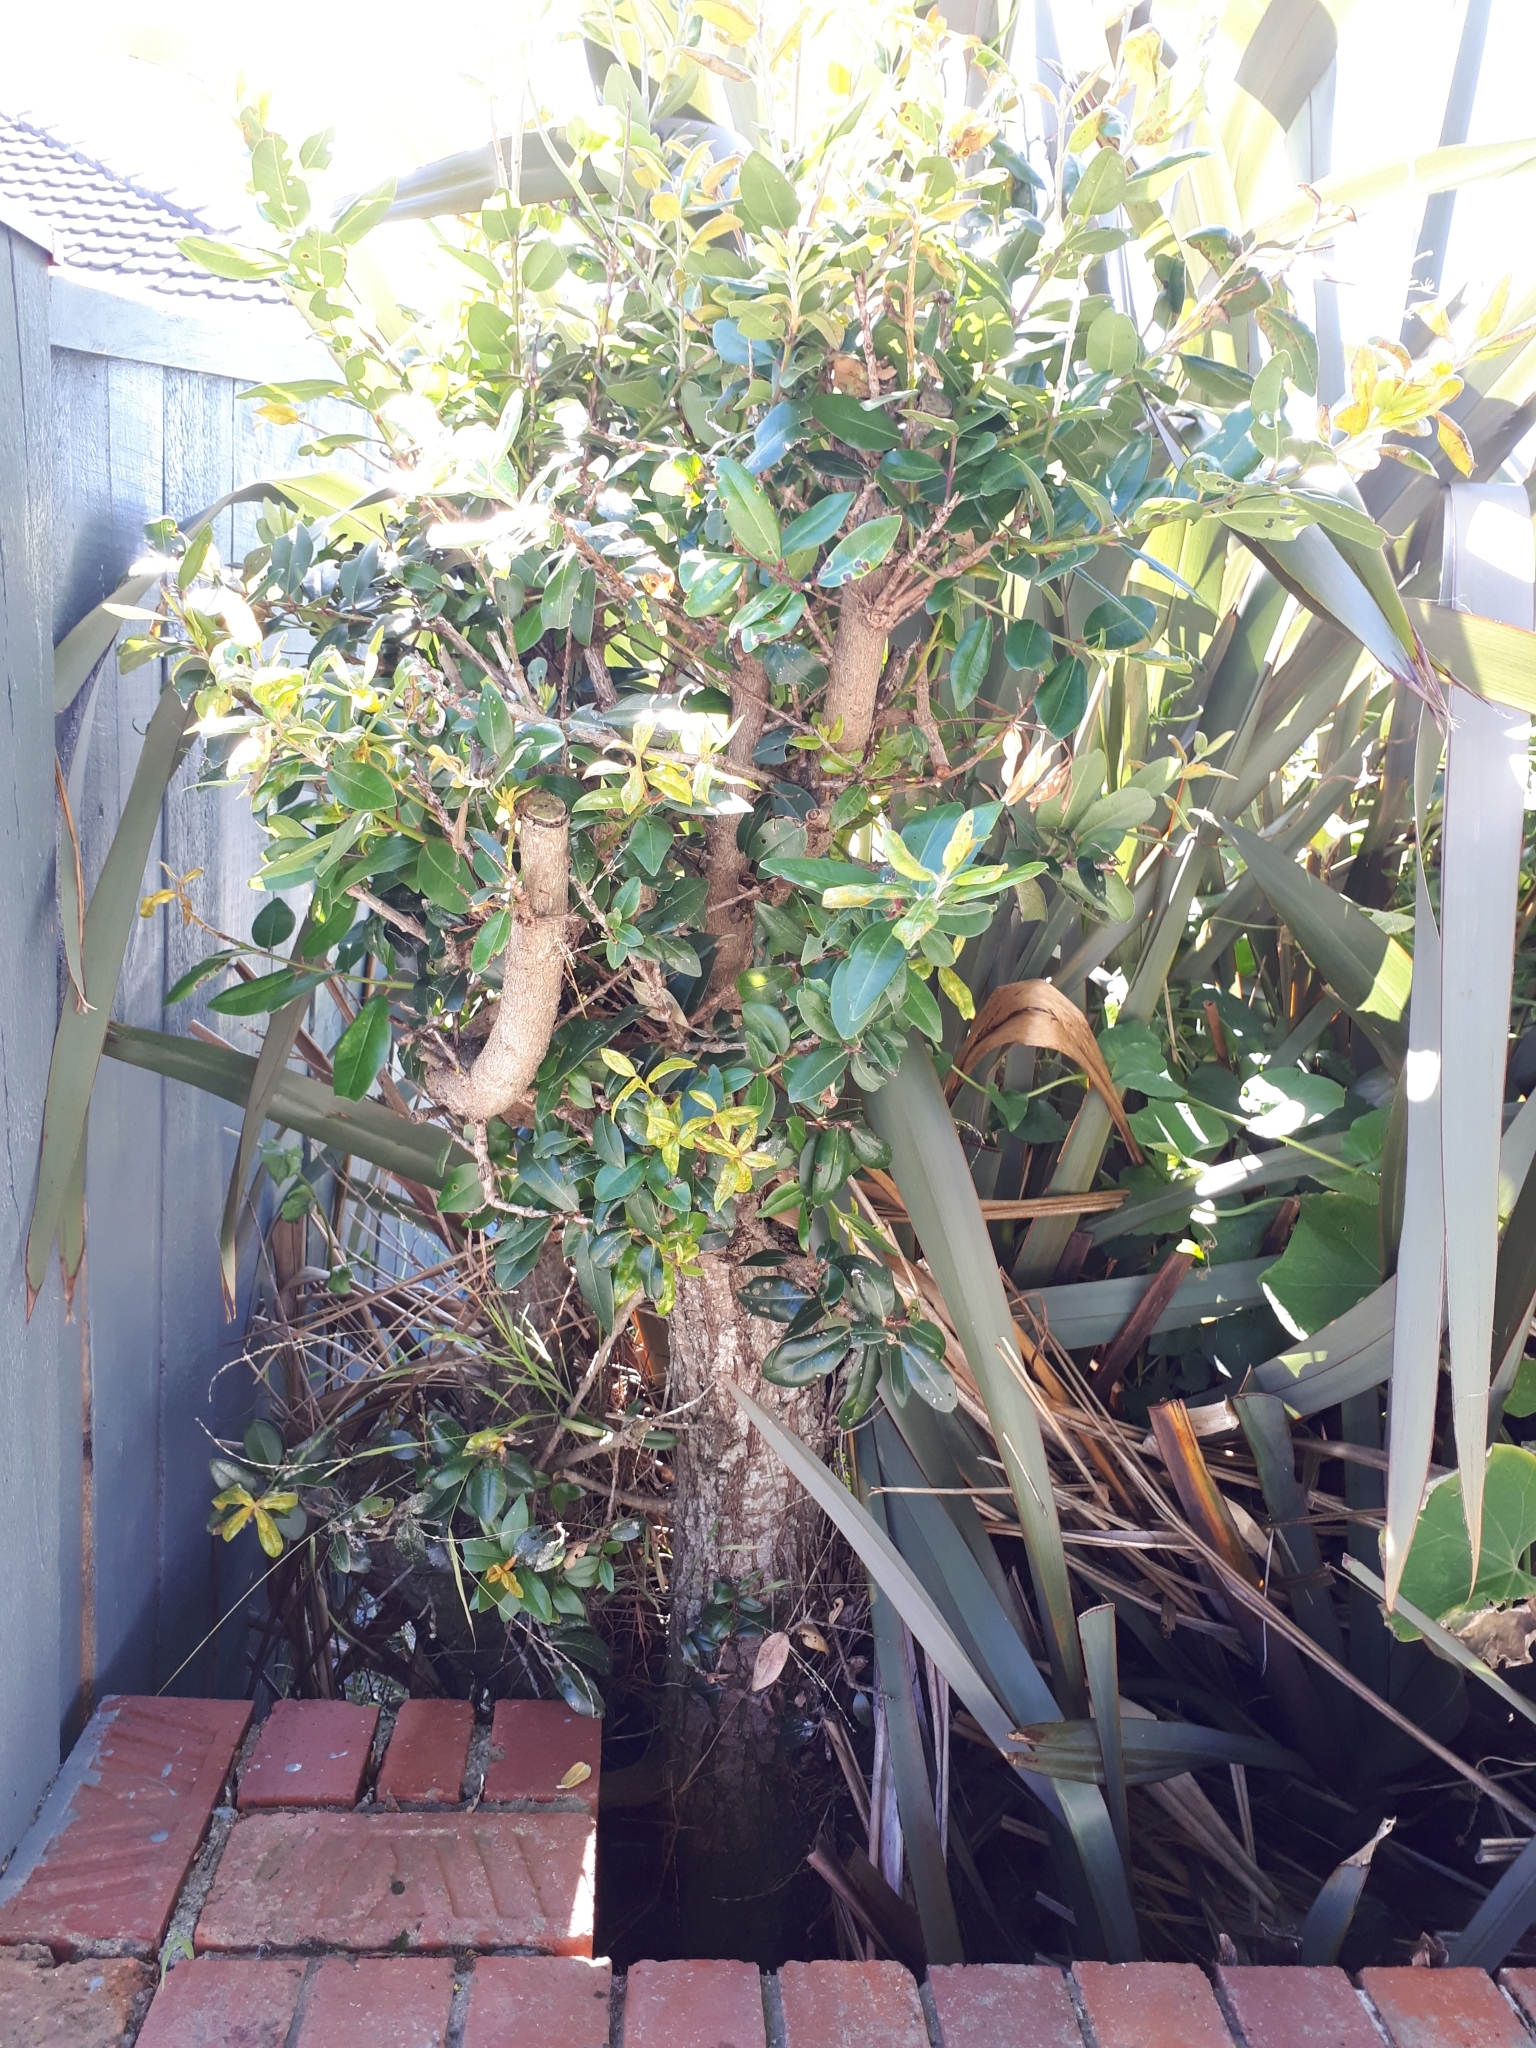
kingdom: Fungi
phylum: Basidiomycota
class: Pucciniomycetes
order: Pucciniales
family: Sphaerophragmiaceae
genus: Austropuccinia
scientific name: Austropuccinia psidii
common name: Myrtle rust
